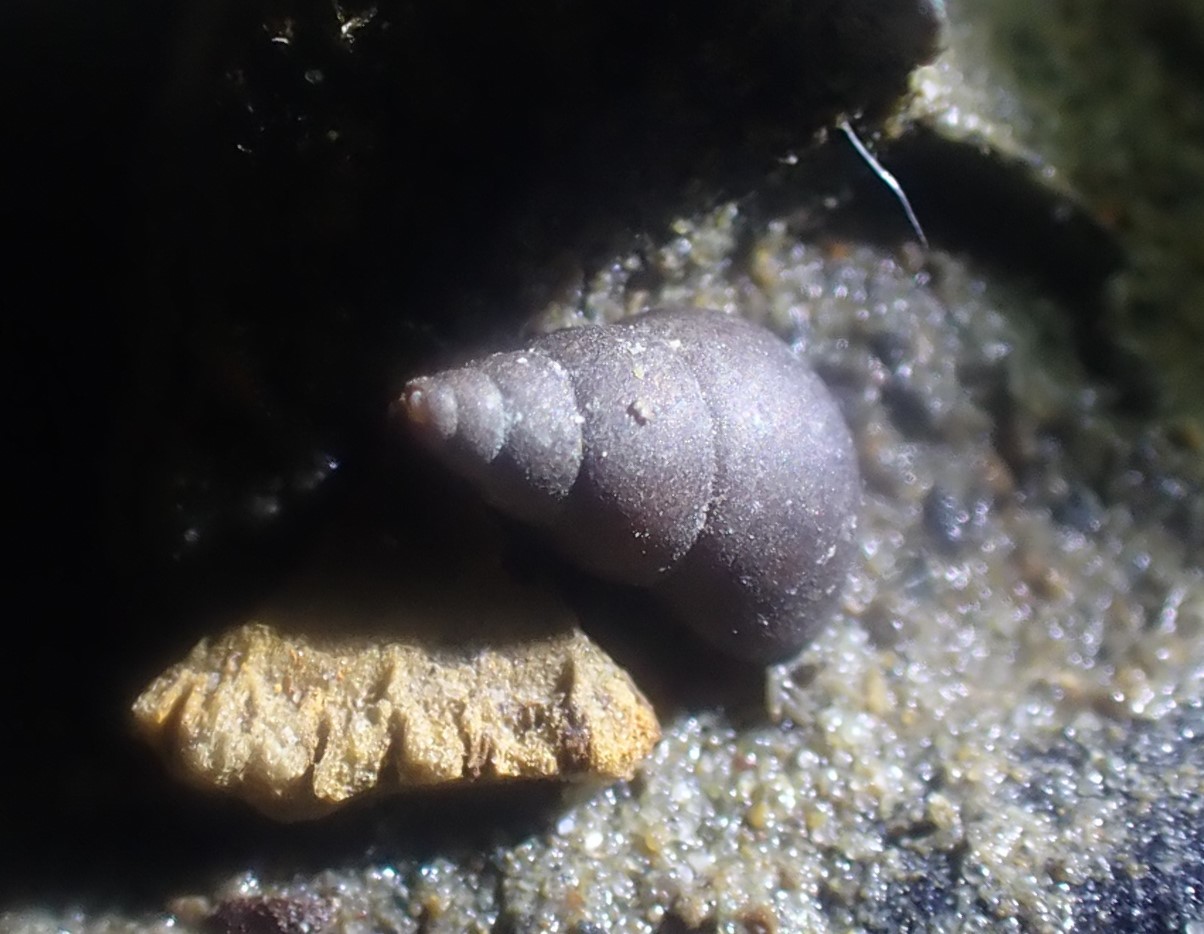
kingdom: Animalia
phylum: Mollusca
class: Gastropoda
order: Littorinimorpha
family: Tateidae
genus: Potamopyrgus
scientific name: Potamopyrgus estuarinus
